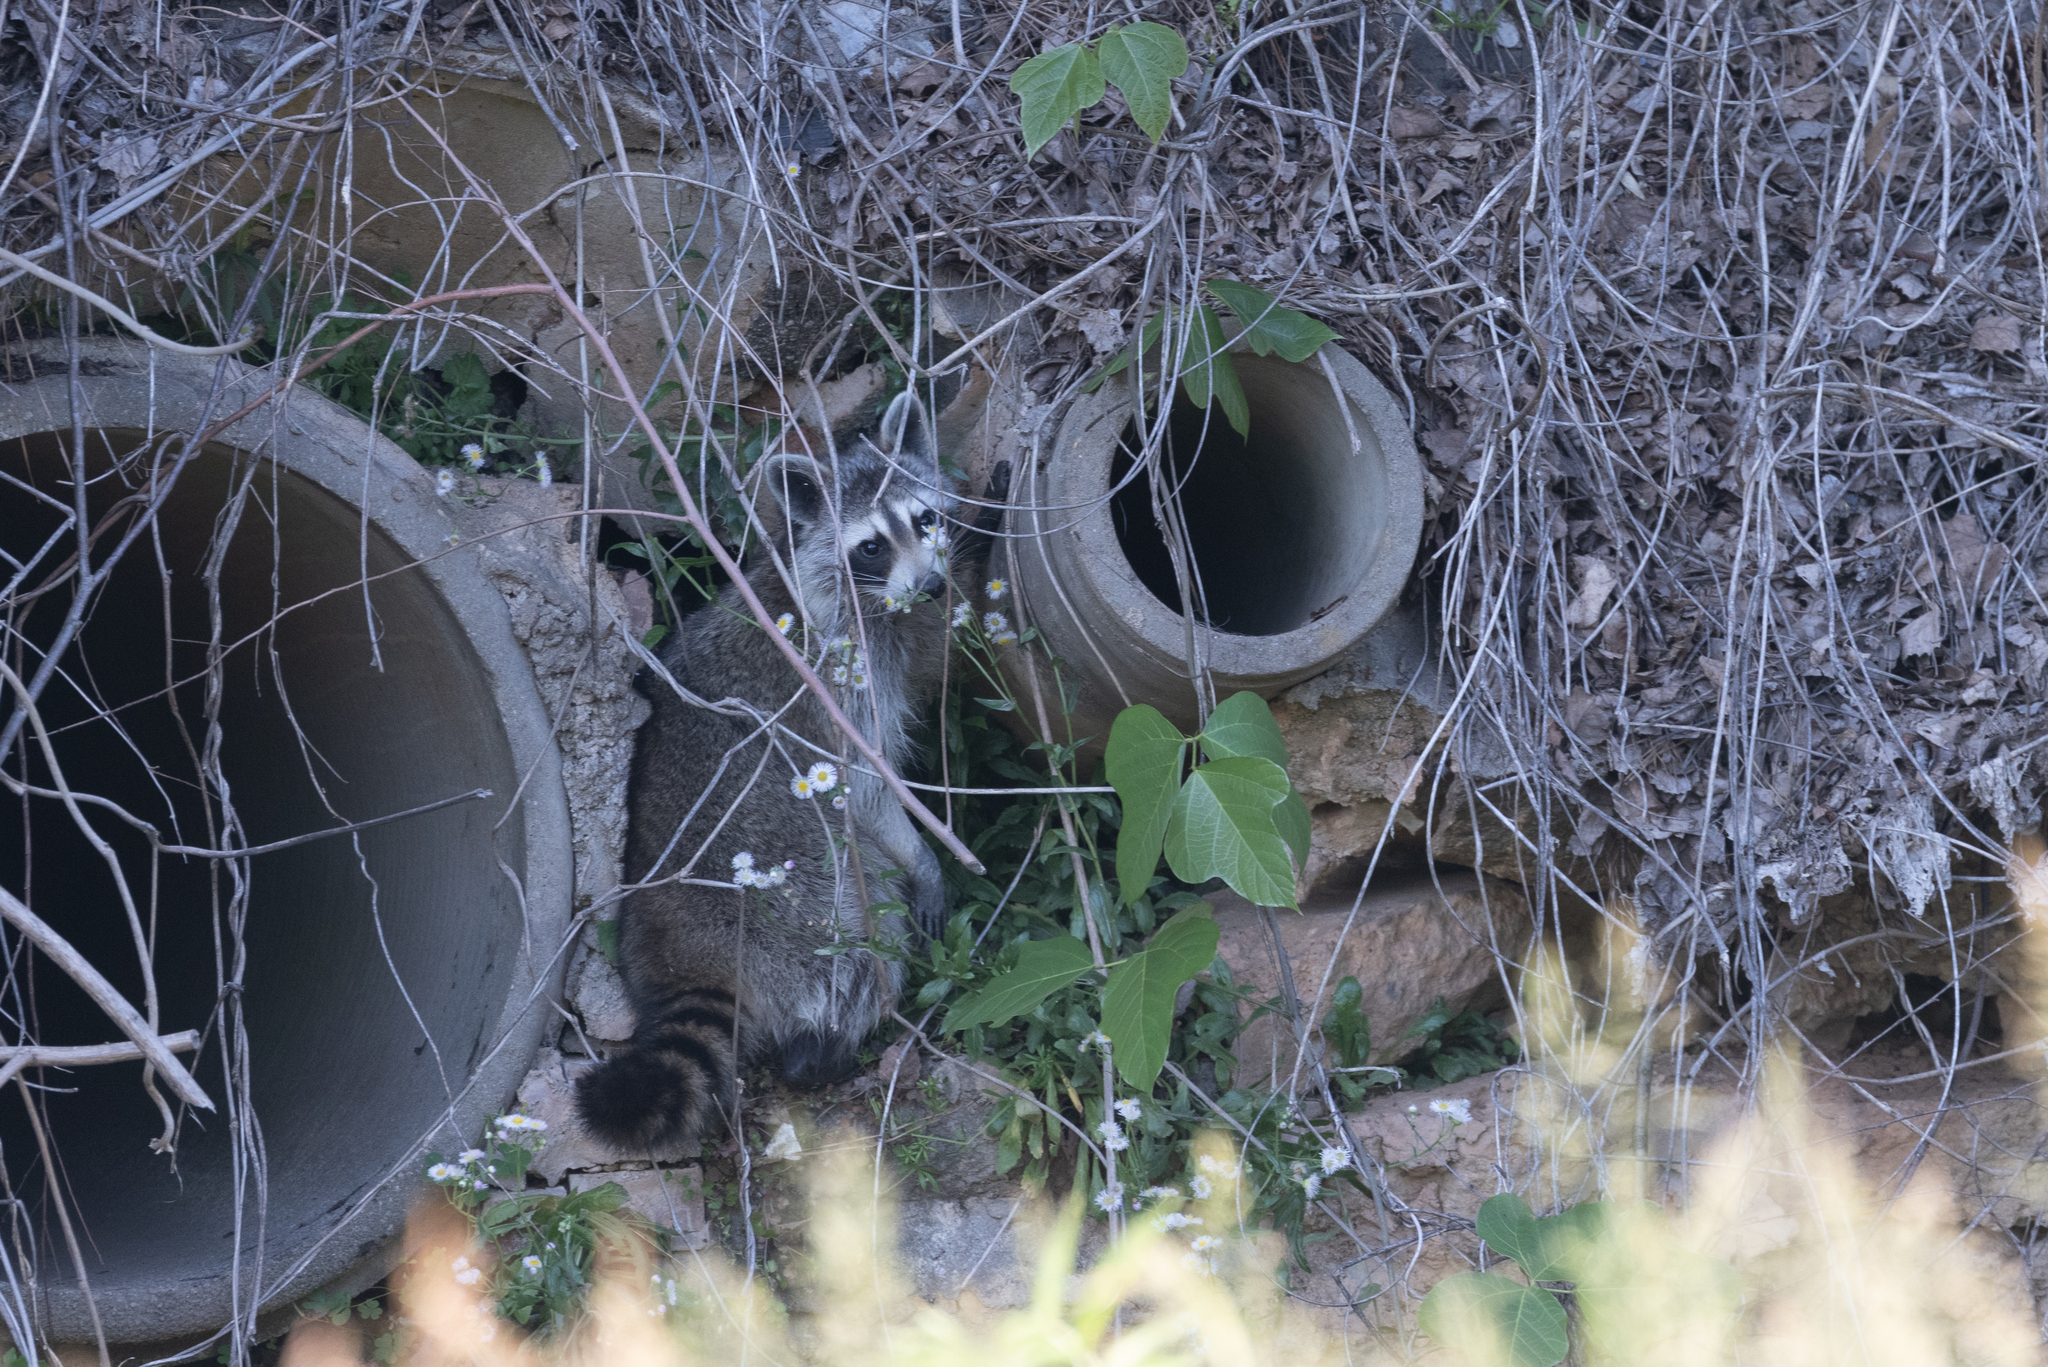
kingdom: Animalia
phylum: Chordata
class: Mammalia
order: Carnivora
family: Procyonidae
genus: Procyon
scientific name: Procyon lotor
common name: Raccoon
